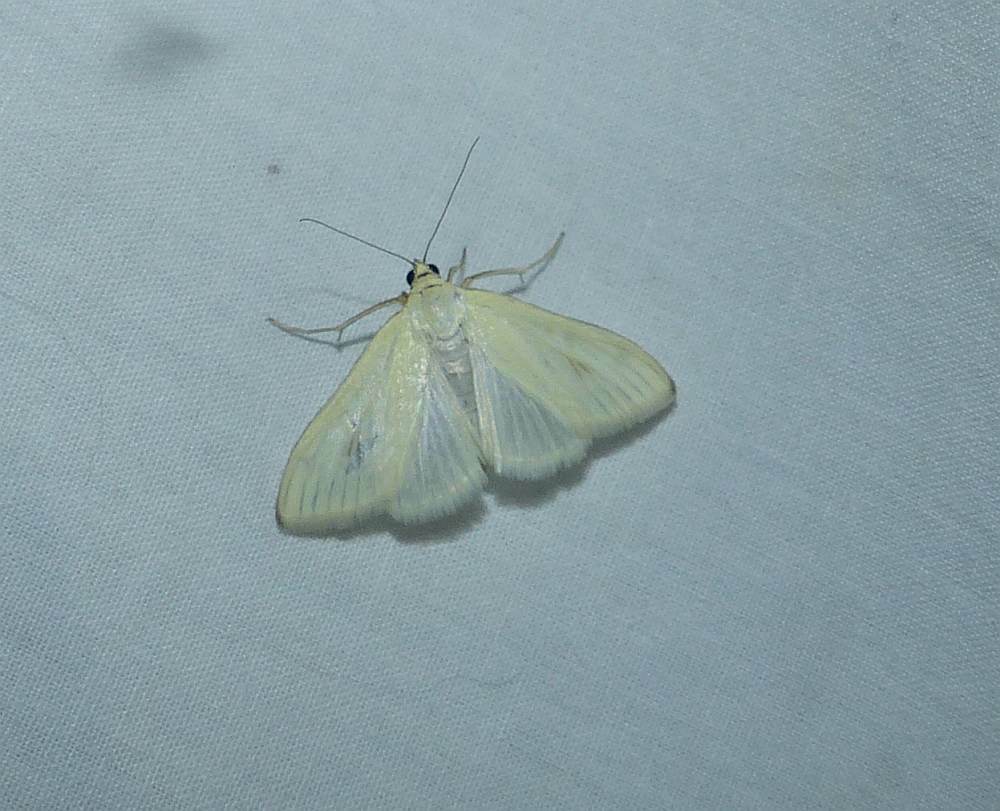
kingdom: Animalia
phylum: Arthropoda
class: Insecta
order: Lepidoptera
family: Crambidae
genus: Sitochroa
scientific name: Sitochroa palealis
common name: Greenish-yellow sitochroa moth
